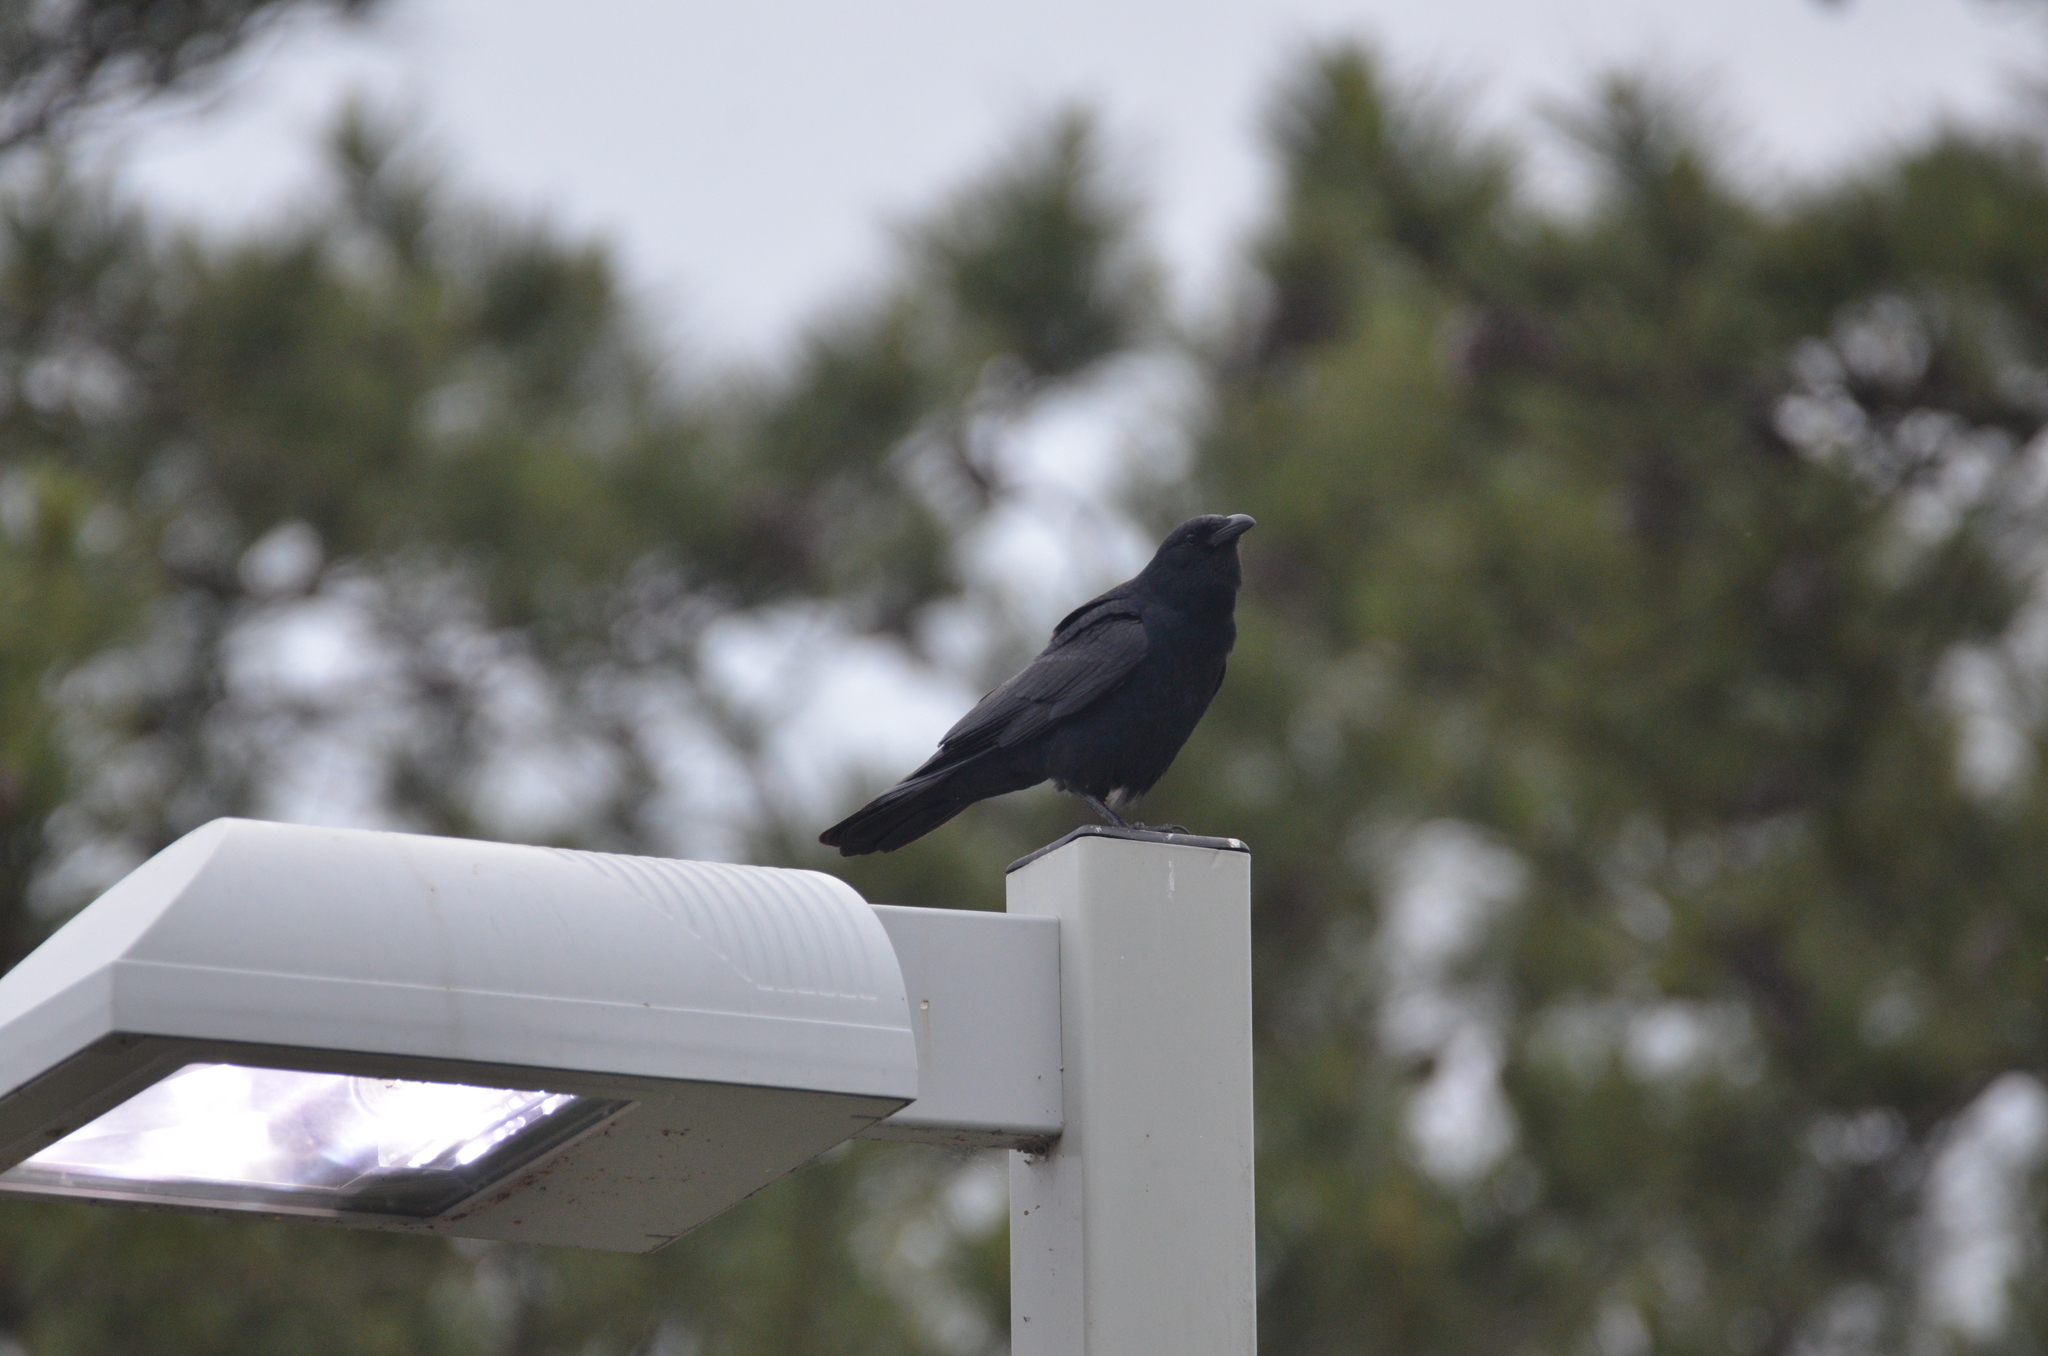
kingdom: Animalia
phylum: Chordata
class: Aves
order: Passeriformes
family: Corvidae
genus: Corvus
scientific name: Corvus ossifragus
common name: Fish crow
